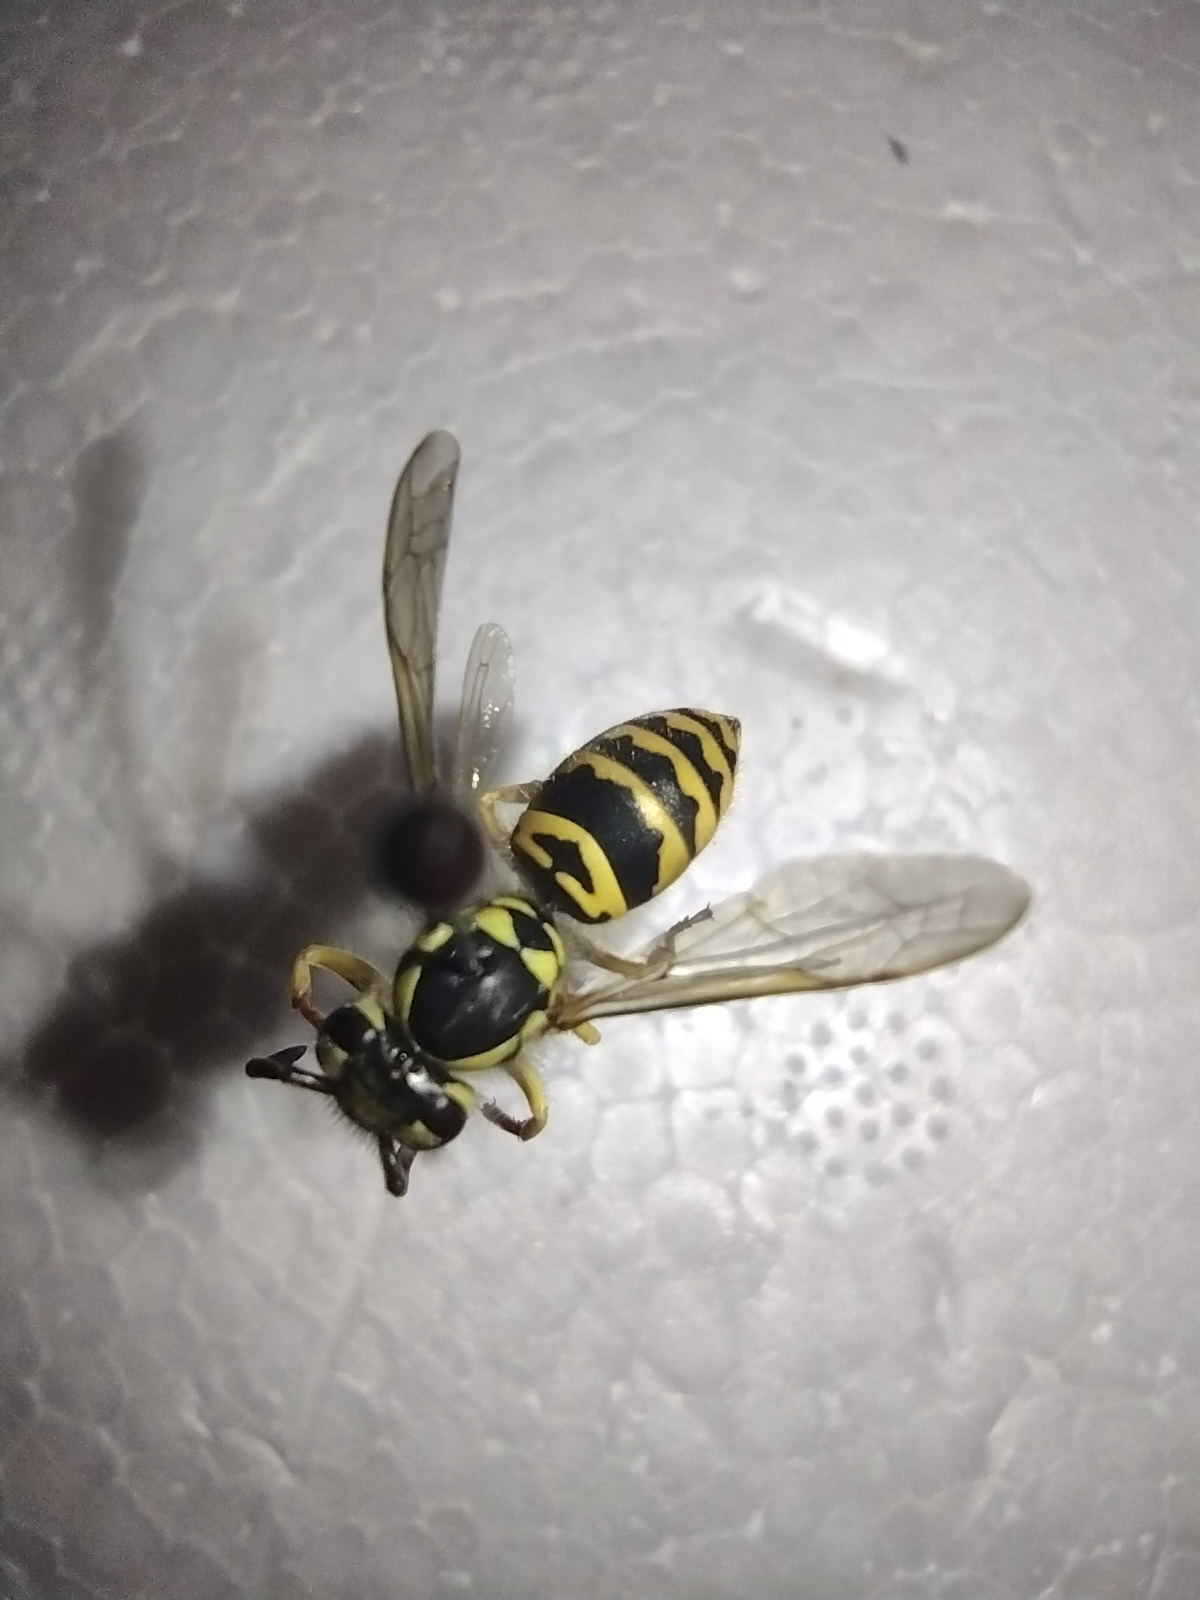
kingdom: Animalia
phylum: Arthropoda
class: Insecta
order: Hymenoptera
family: Vespidae
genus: Vespula
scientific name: Vespula maculifrons
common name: Eastern yellowjacket
